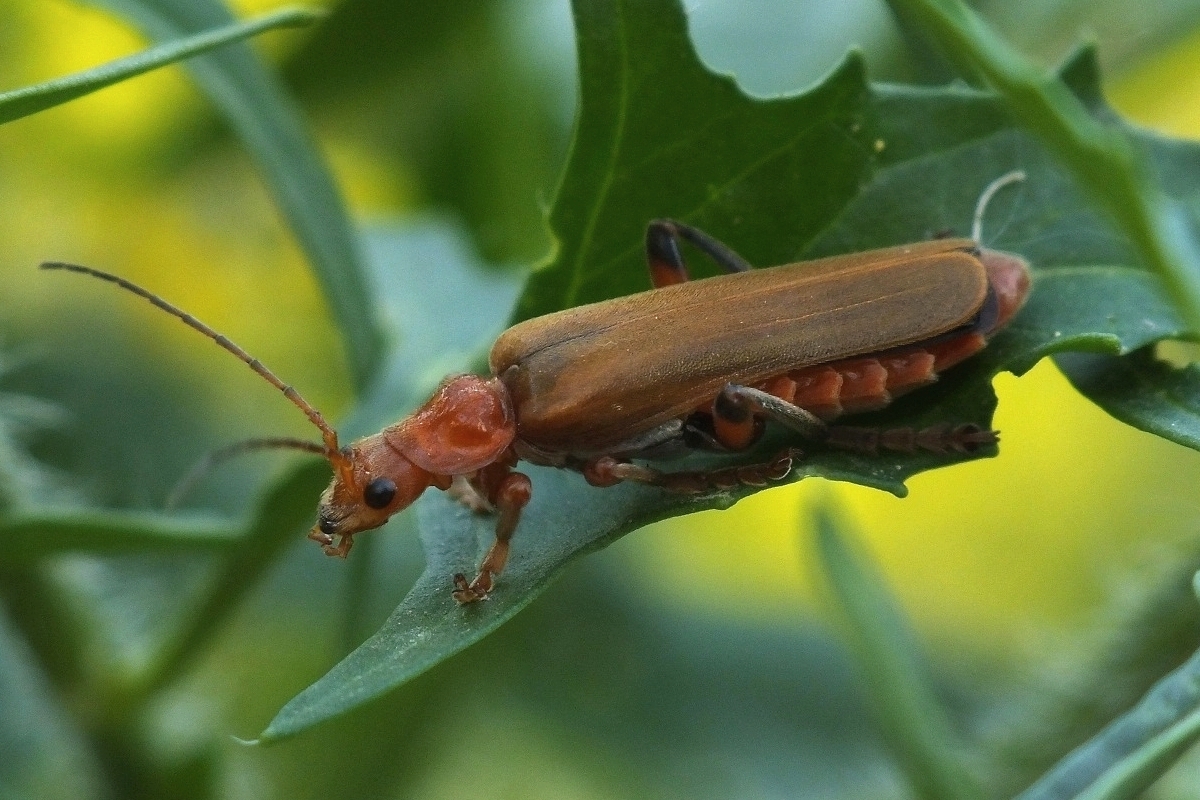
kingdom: Animalia
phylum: Arthropoda
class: Insecta
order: Coleoptera
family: Cantharidae
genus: Cantharis
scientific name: Cantharis livida
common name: Livid soldier beetle
